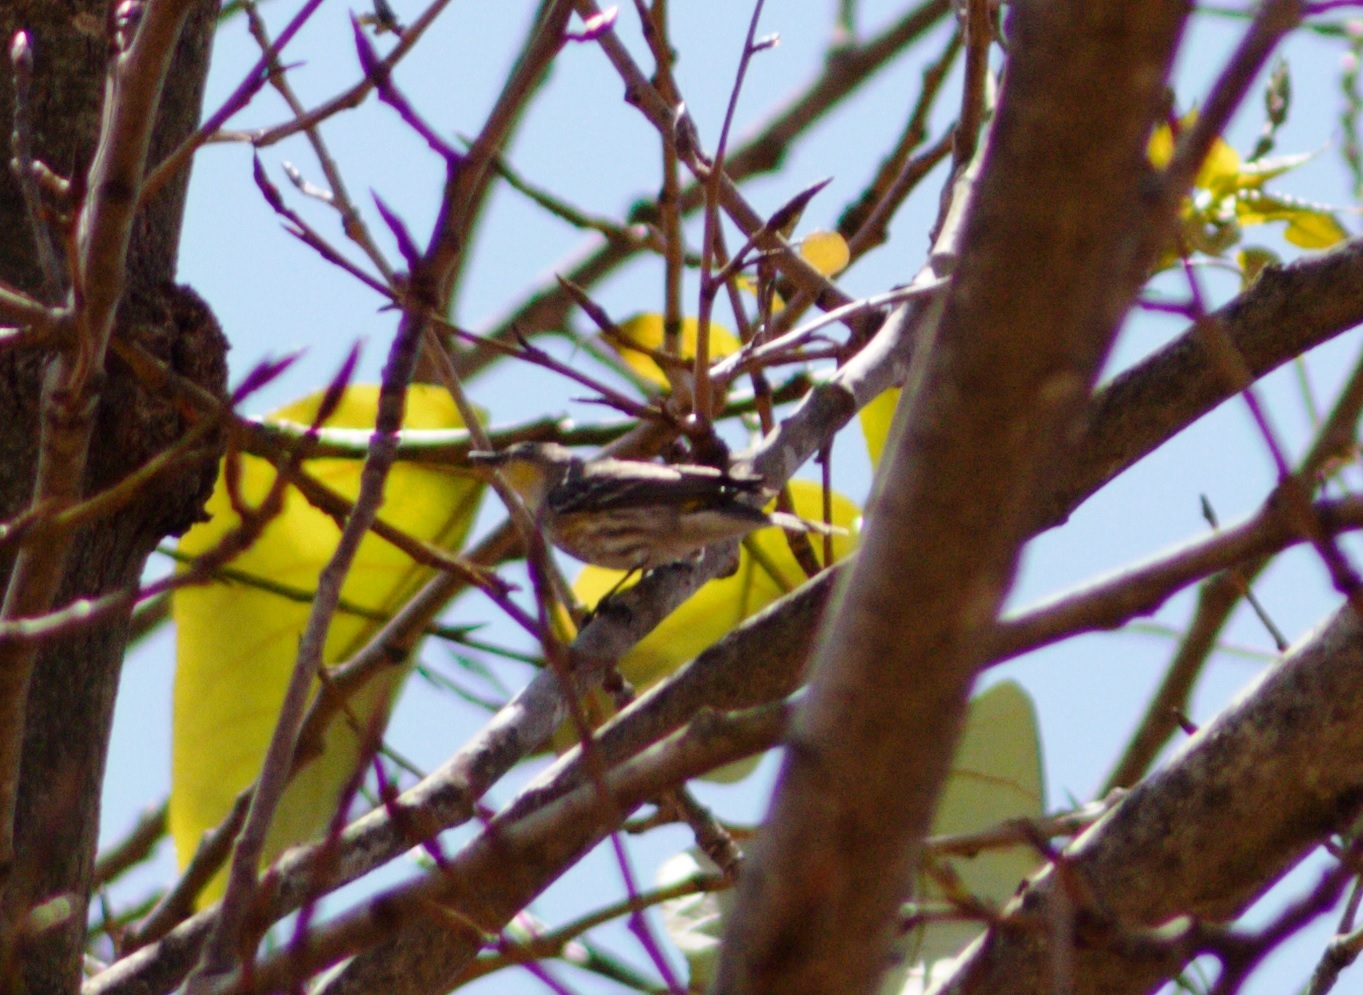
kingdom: Animalia
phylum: Chordata
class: Aves
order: Passeriformes
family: Parulidae
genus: Setophaga
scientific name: Setophaga auduboni
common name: Audubon's warbler
